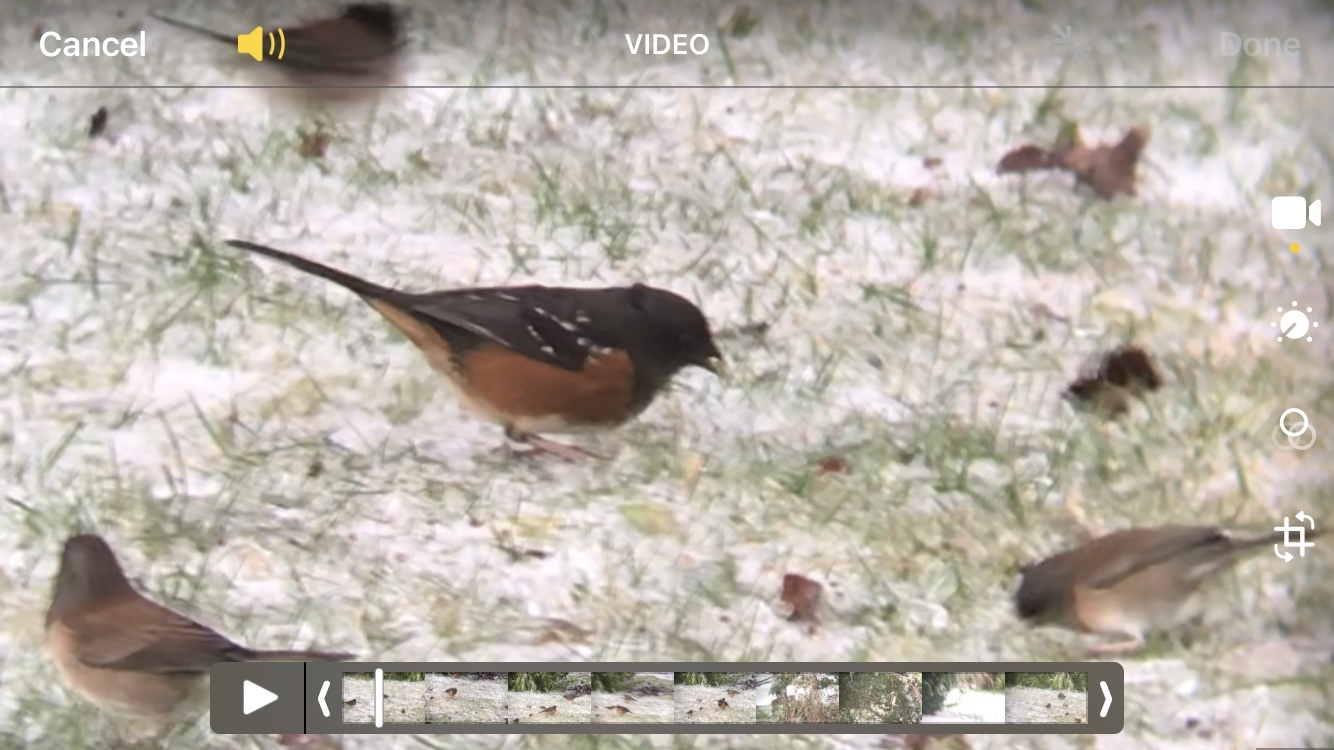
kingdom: Animalia
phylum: Chordata
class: Aves
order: Passeriformes
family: Passerellidae
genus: Pipilo
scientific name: Pipilo maculatus
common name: Spotted towhee
